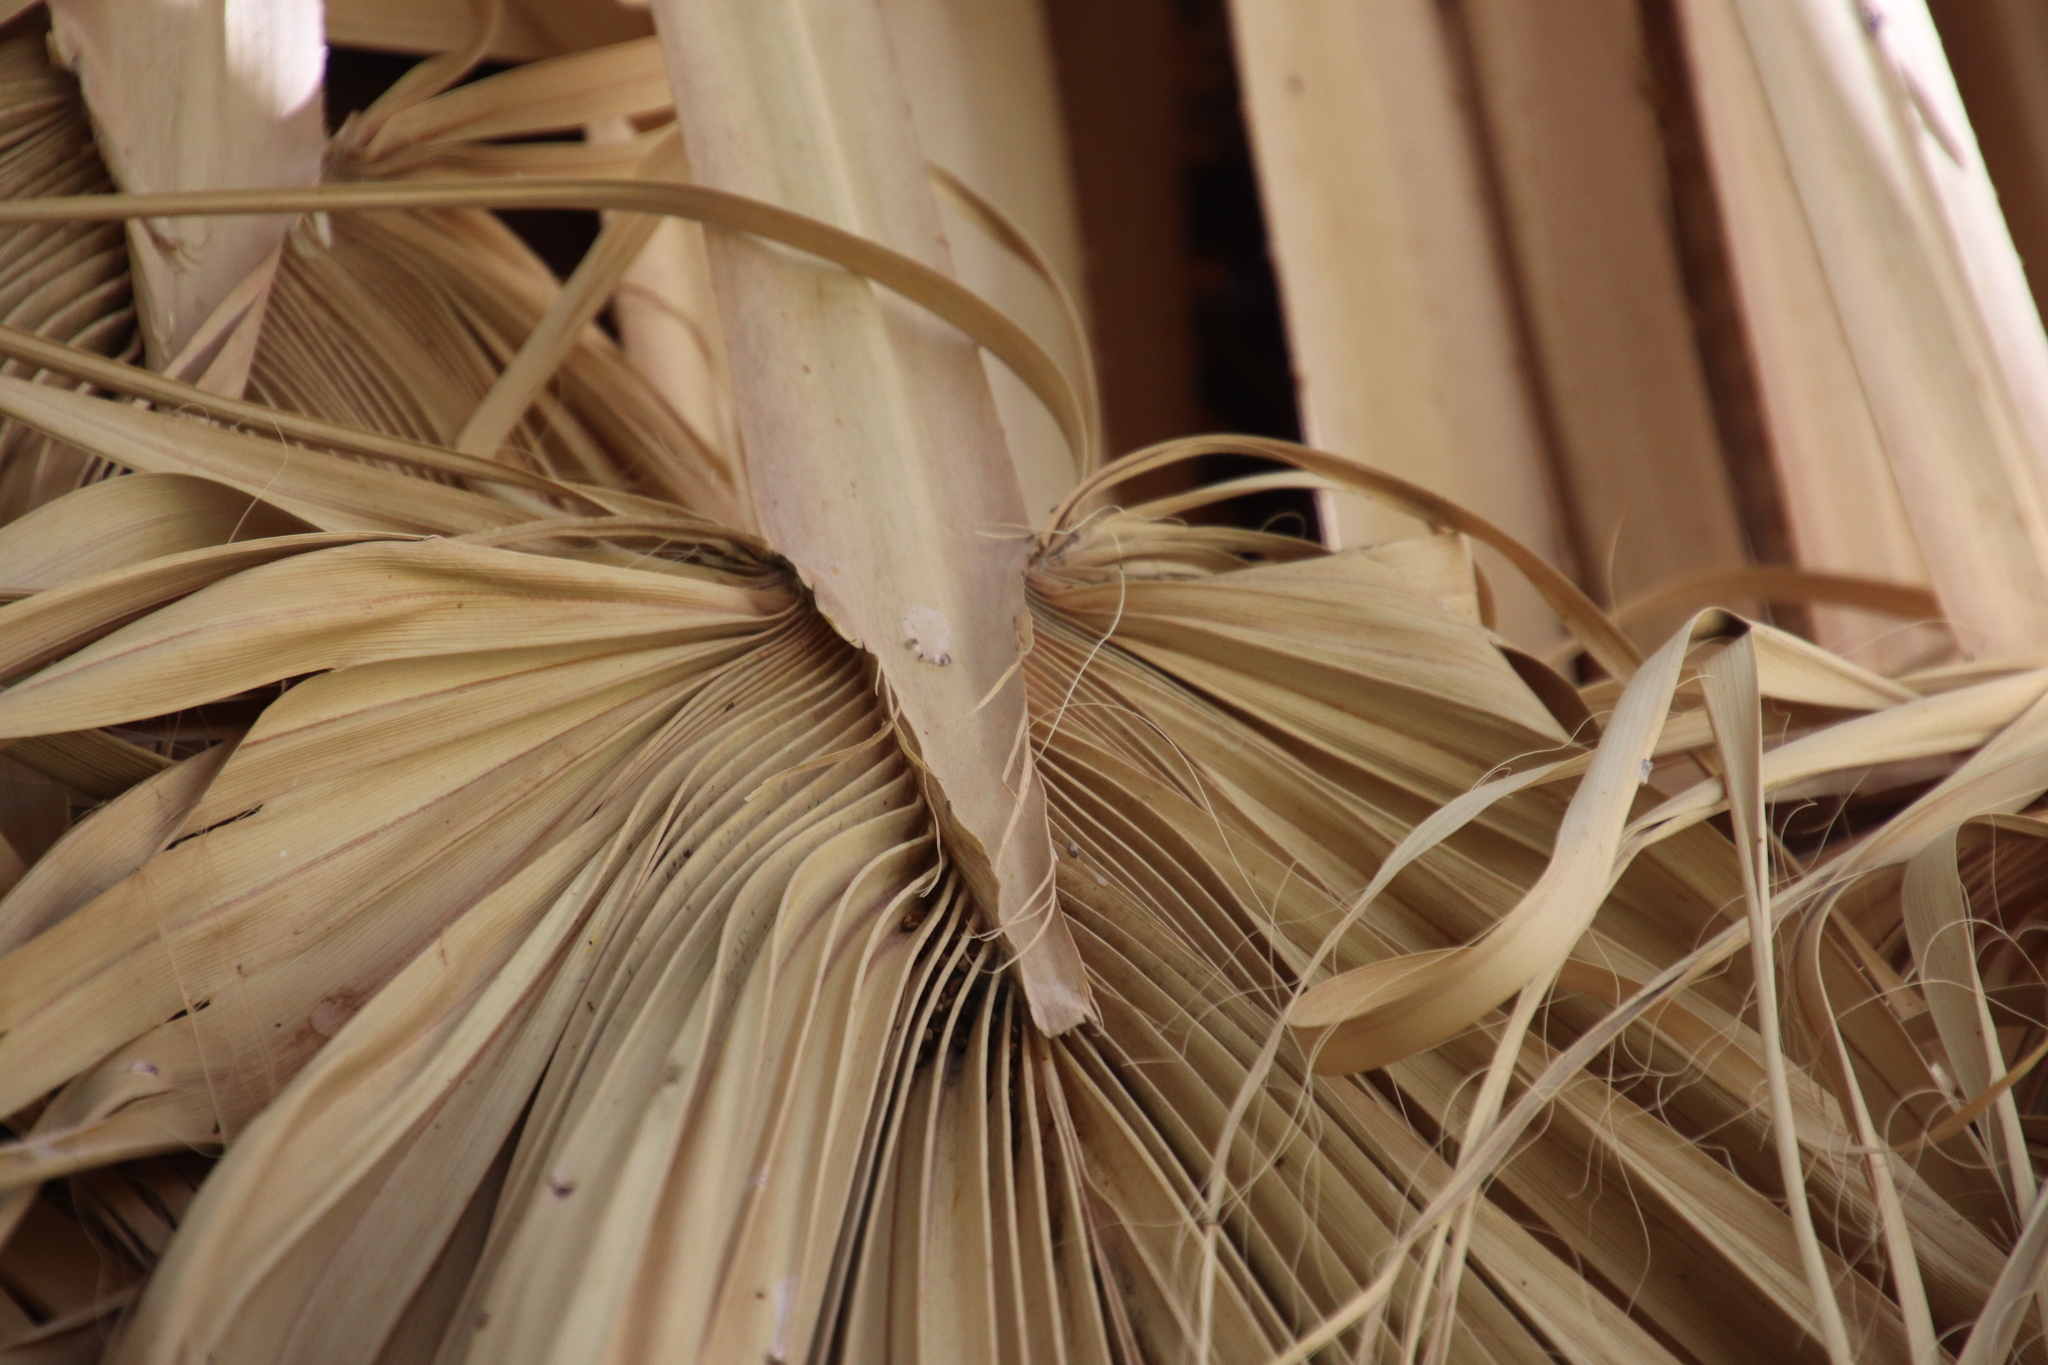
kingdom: Plantae
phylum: Tracheophyta
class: Liliopsida
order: Arecales
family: Arecaceae
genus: Washingtonia
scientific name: Washingtonia filifera
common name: California fan palm
